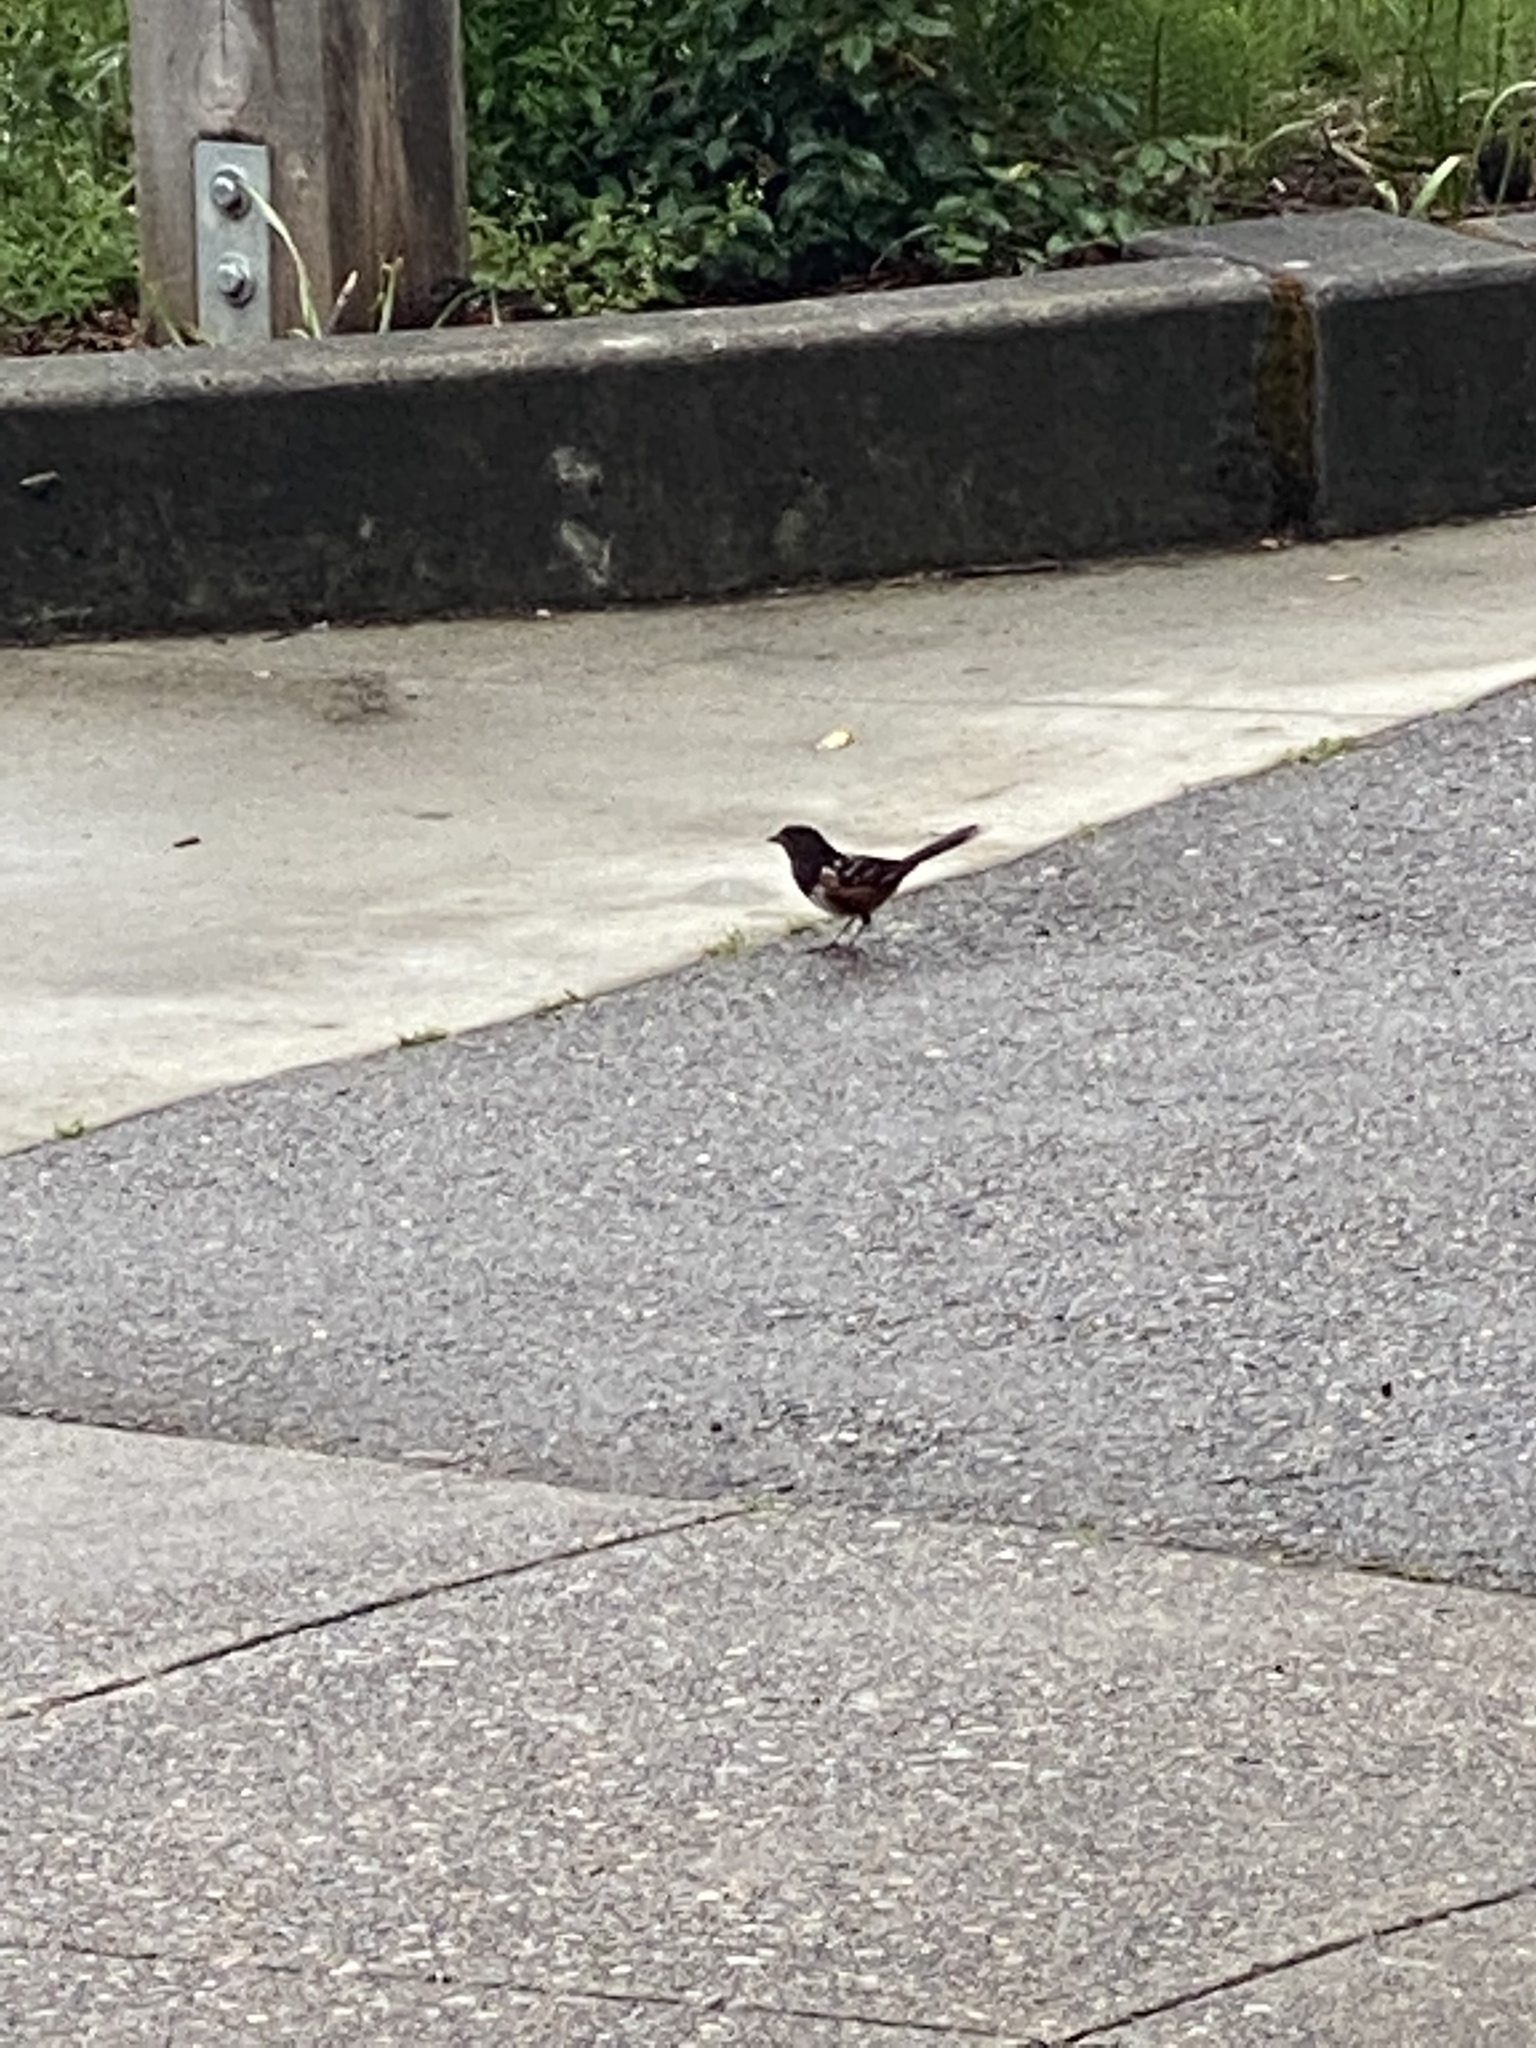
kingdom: Animalia
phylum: Chordata
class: Aves
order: Passeriformes
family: Passerellidae
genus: Pipilo
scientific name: Pipilo maculatus
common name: Spotted towhee
